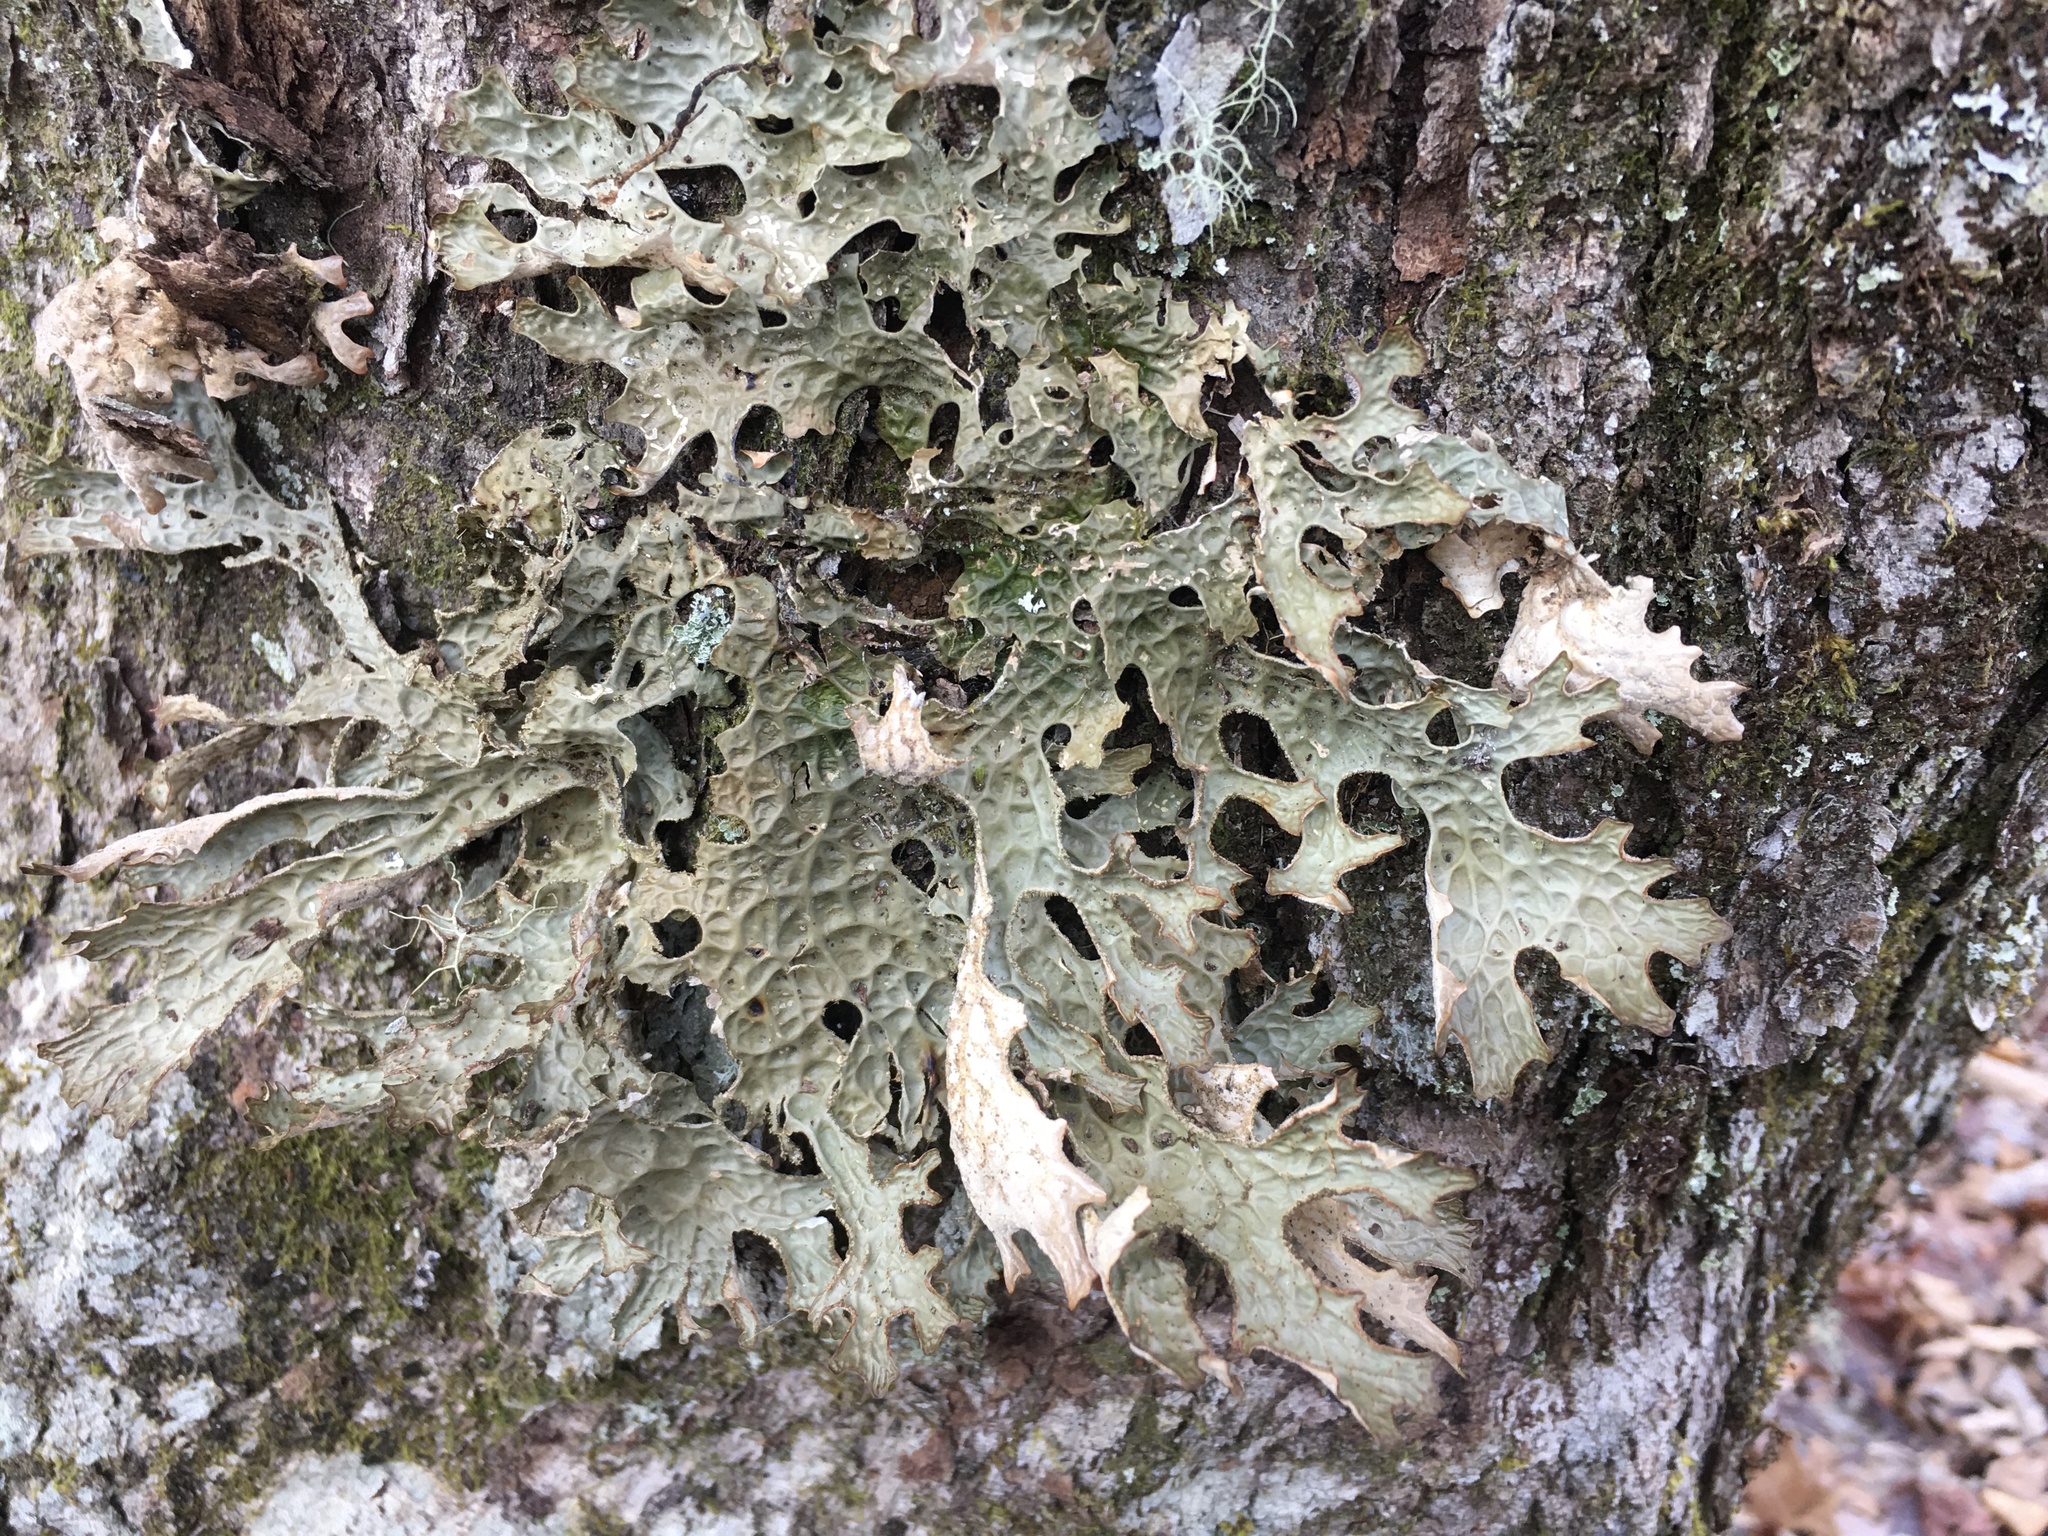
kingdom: Fungi
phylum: Ascomycota
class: Lecanoromycetes
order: Peltigerales
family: Lobariaceae
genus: Lobaria
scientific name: Lobaria pulmonaria
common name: Lungwort
